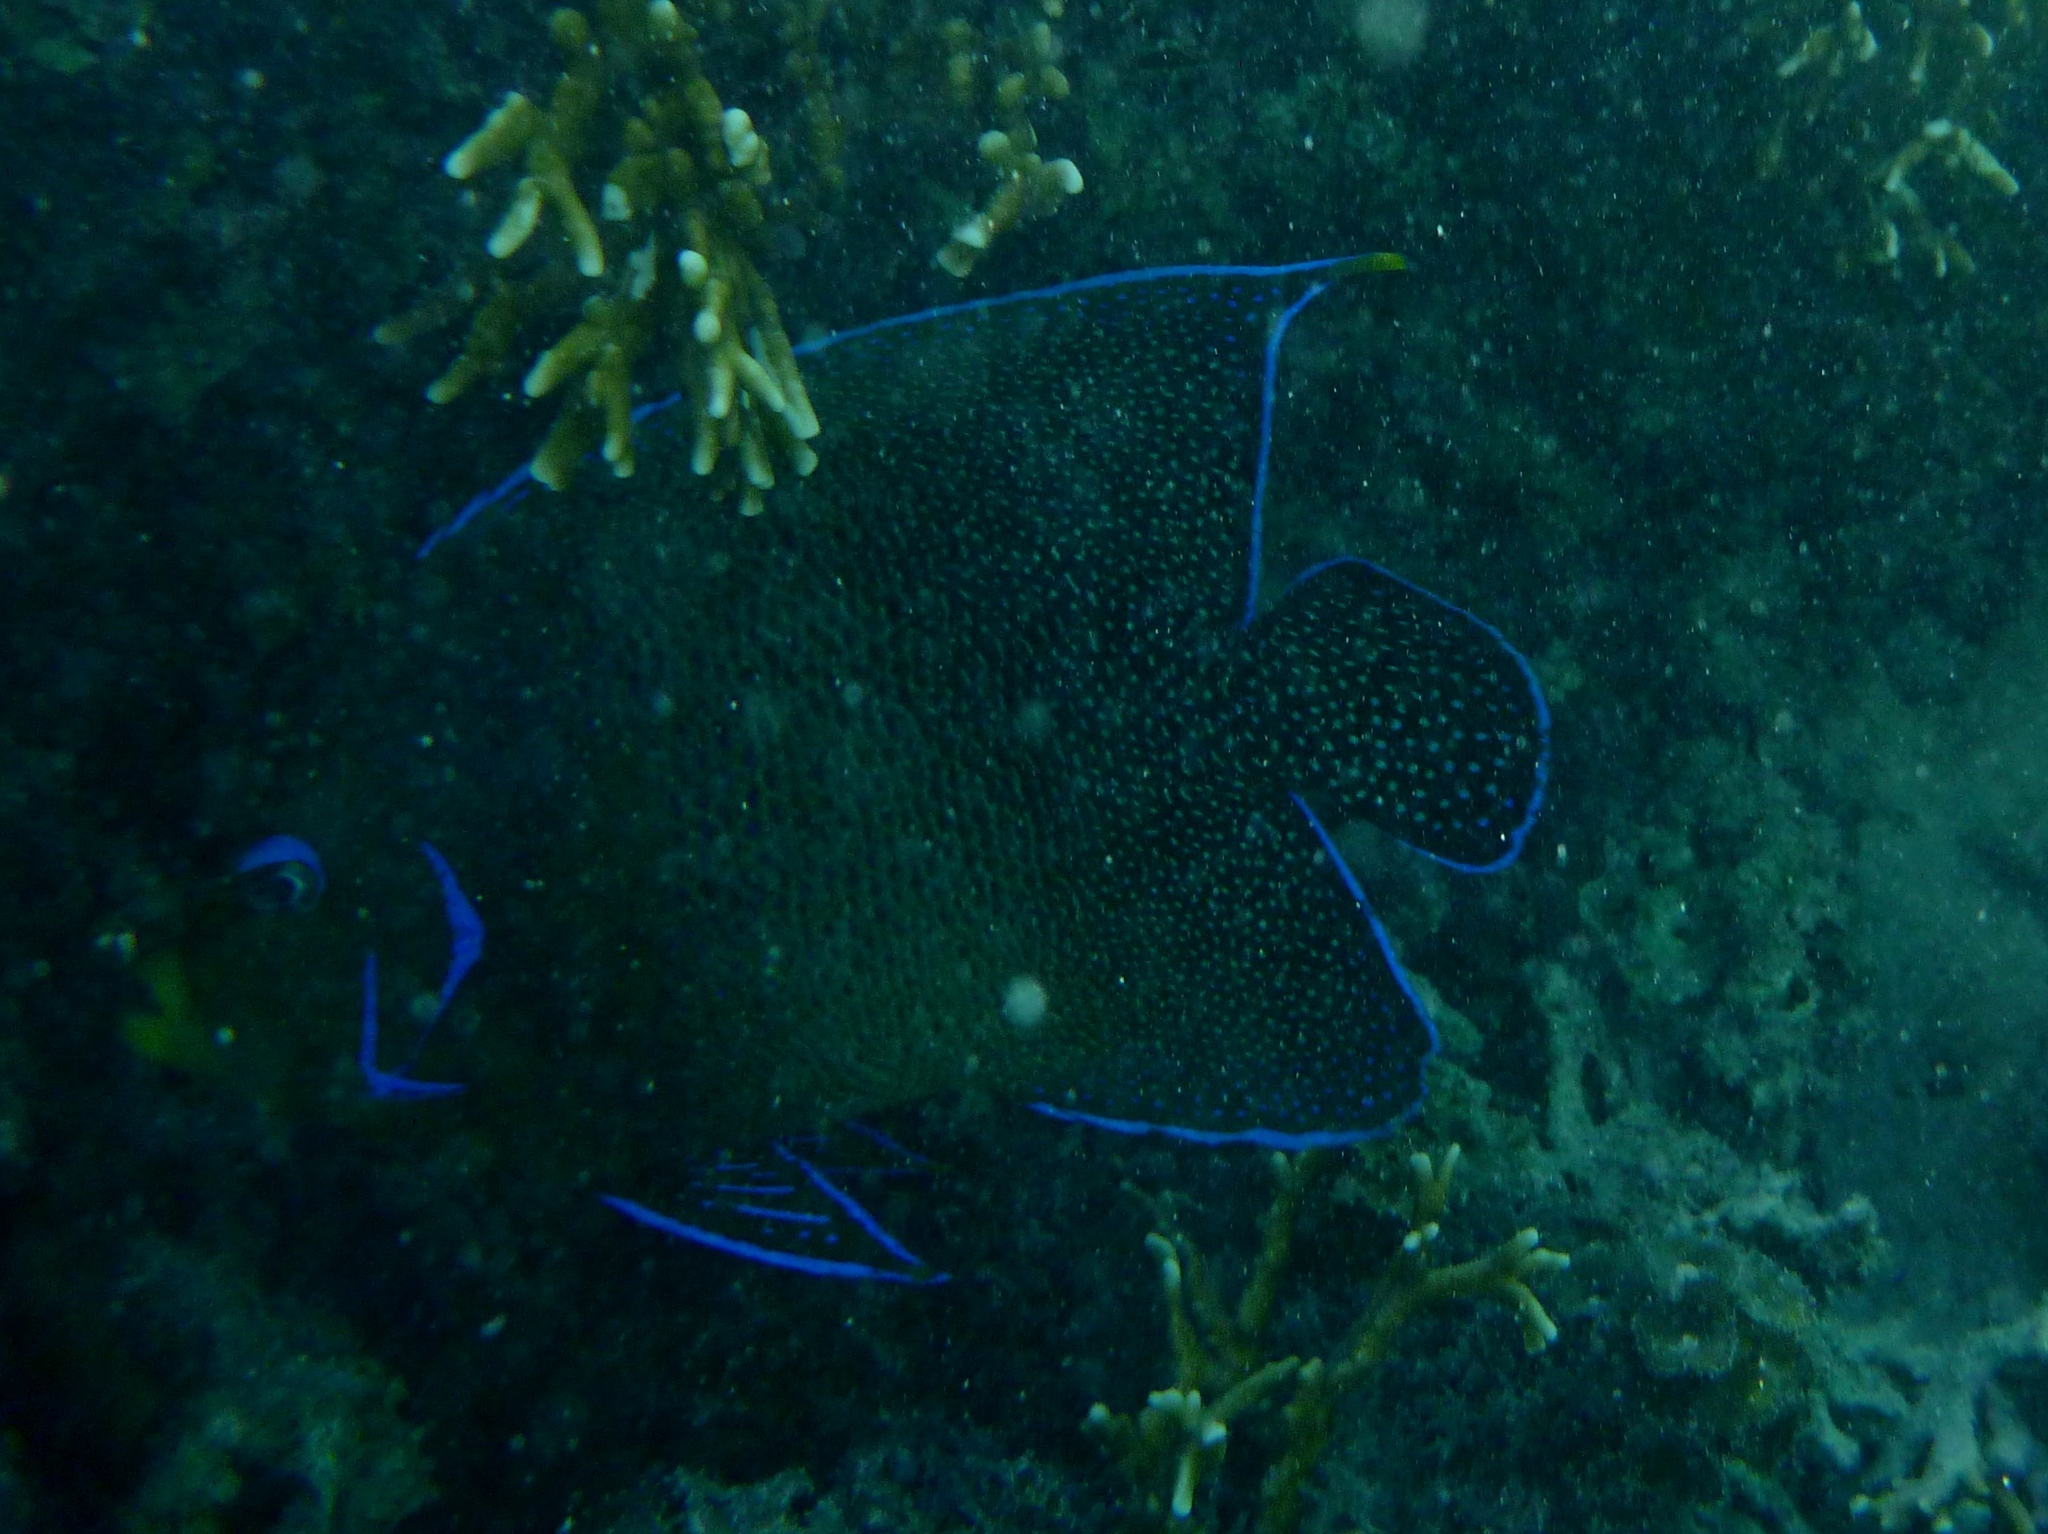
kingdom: Animalia
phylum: Chordata
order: Perciformes
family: Pomacanthidae
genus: Pomacanthus
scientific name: Pomacanthus semicirculatus
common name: Semicircle angelfish
